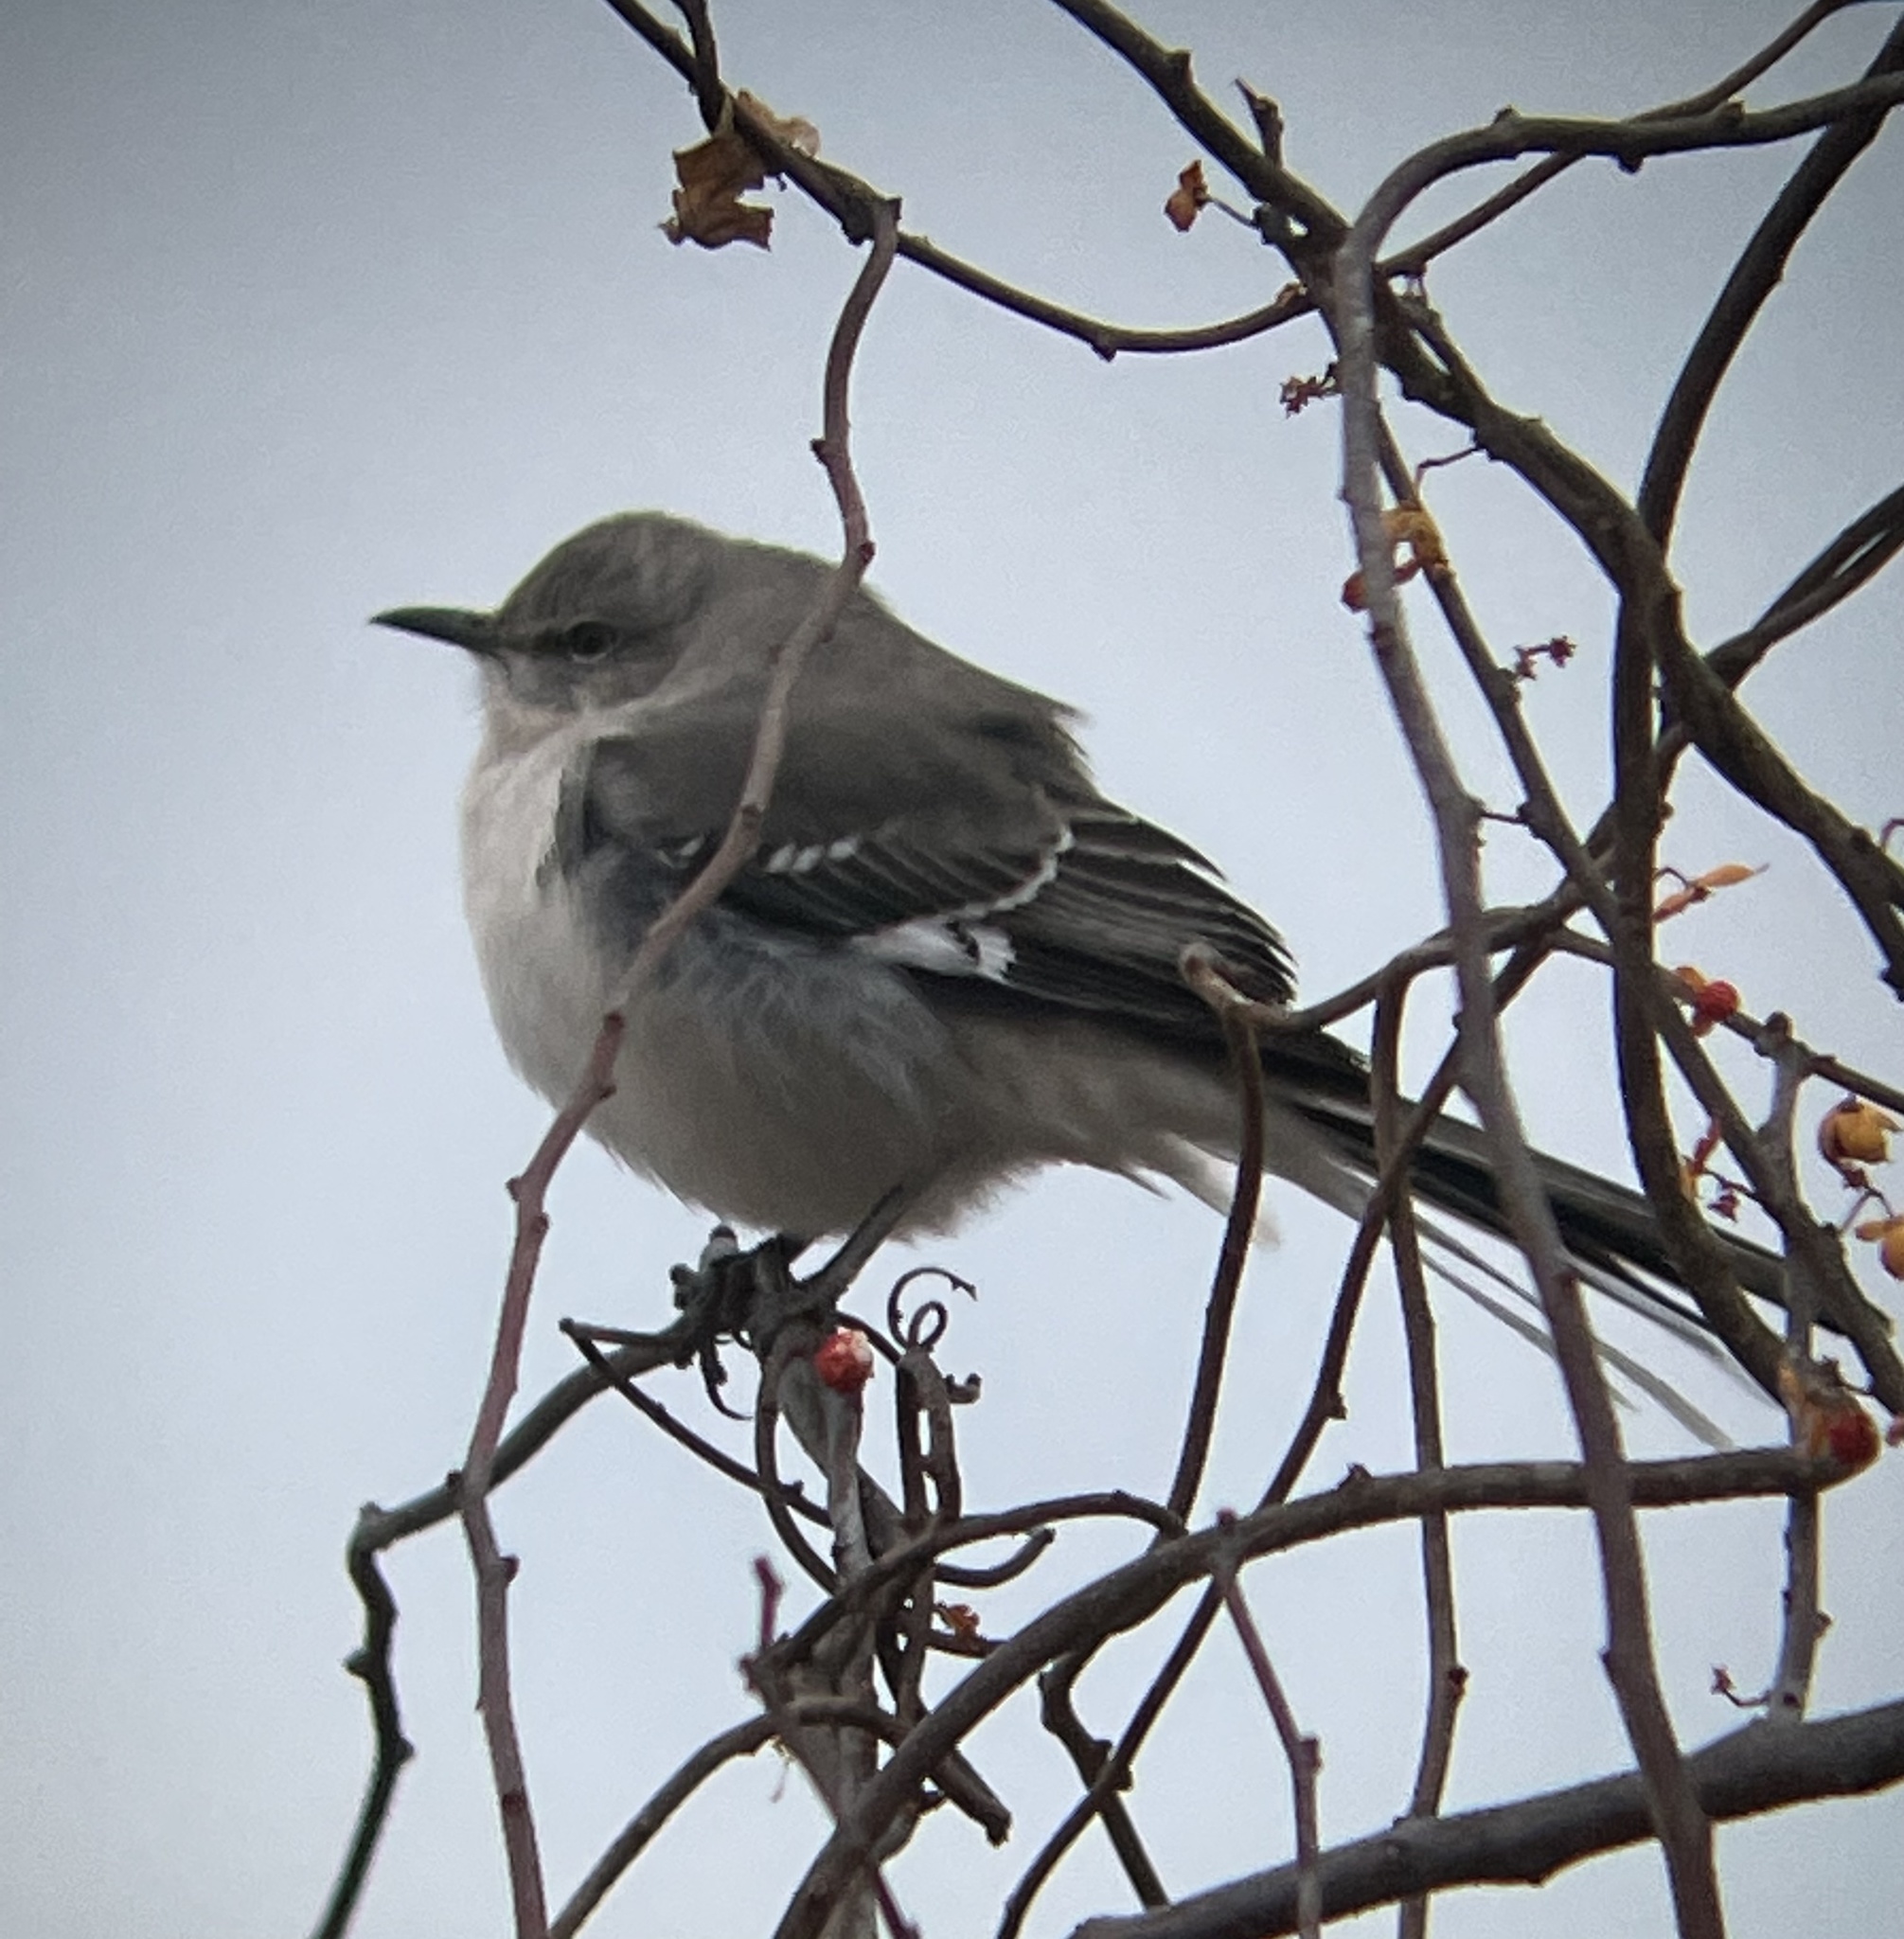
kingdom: Animalia
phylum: Chordata
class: Aves
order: Passeriformes
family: Mimidae
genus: Mimus
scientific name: Mimus polyglottos
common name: Northern mockingbird
